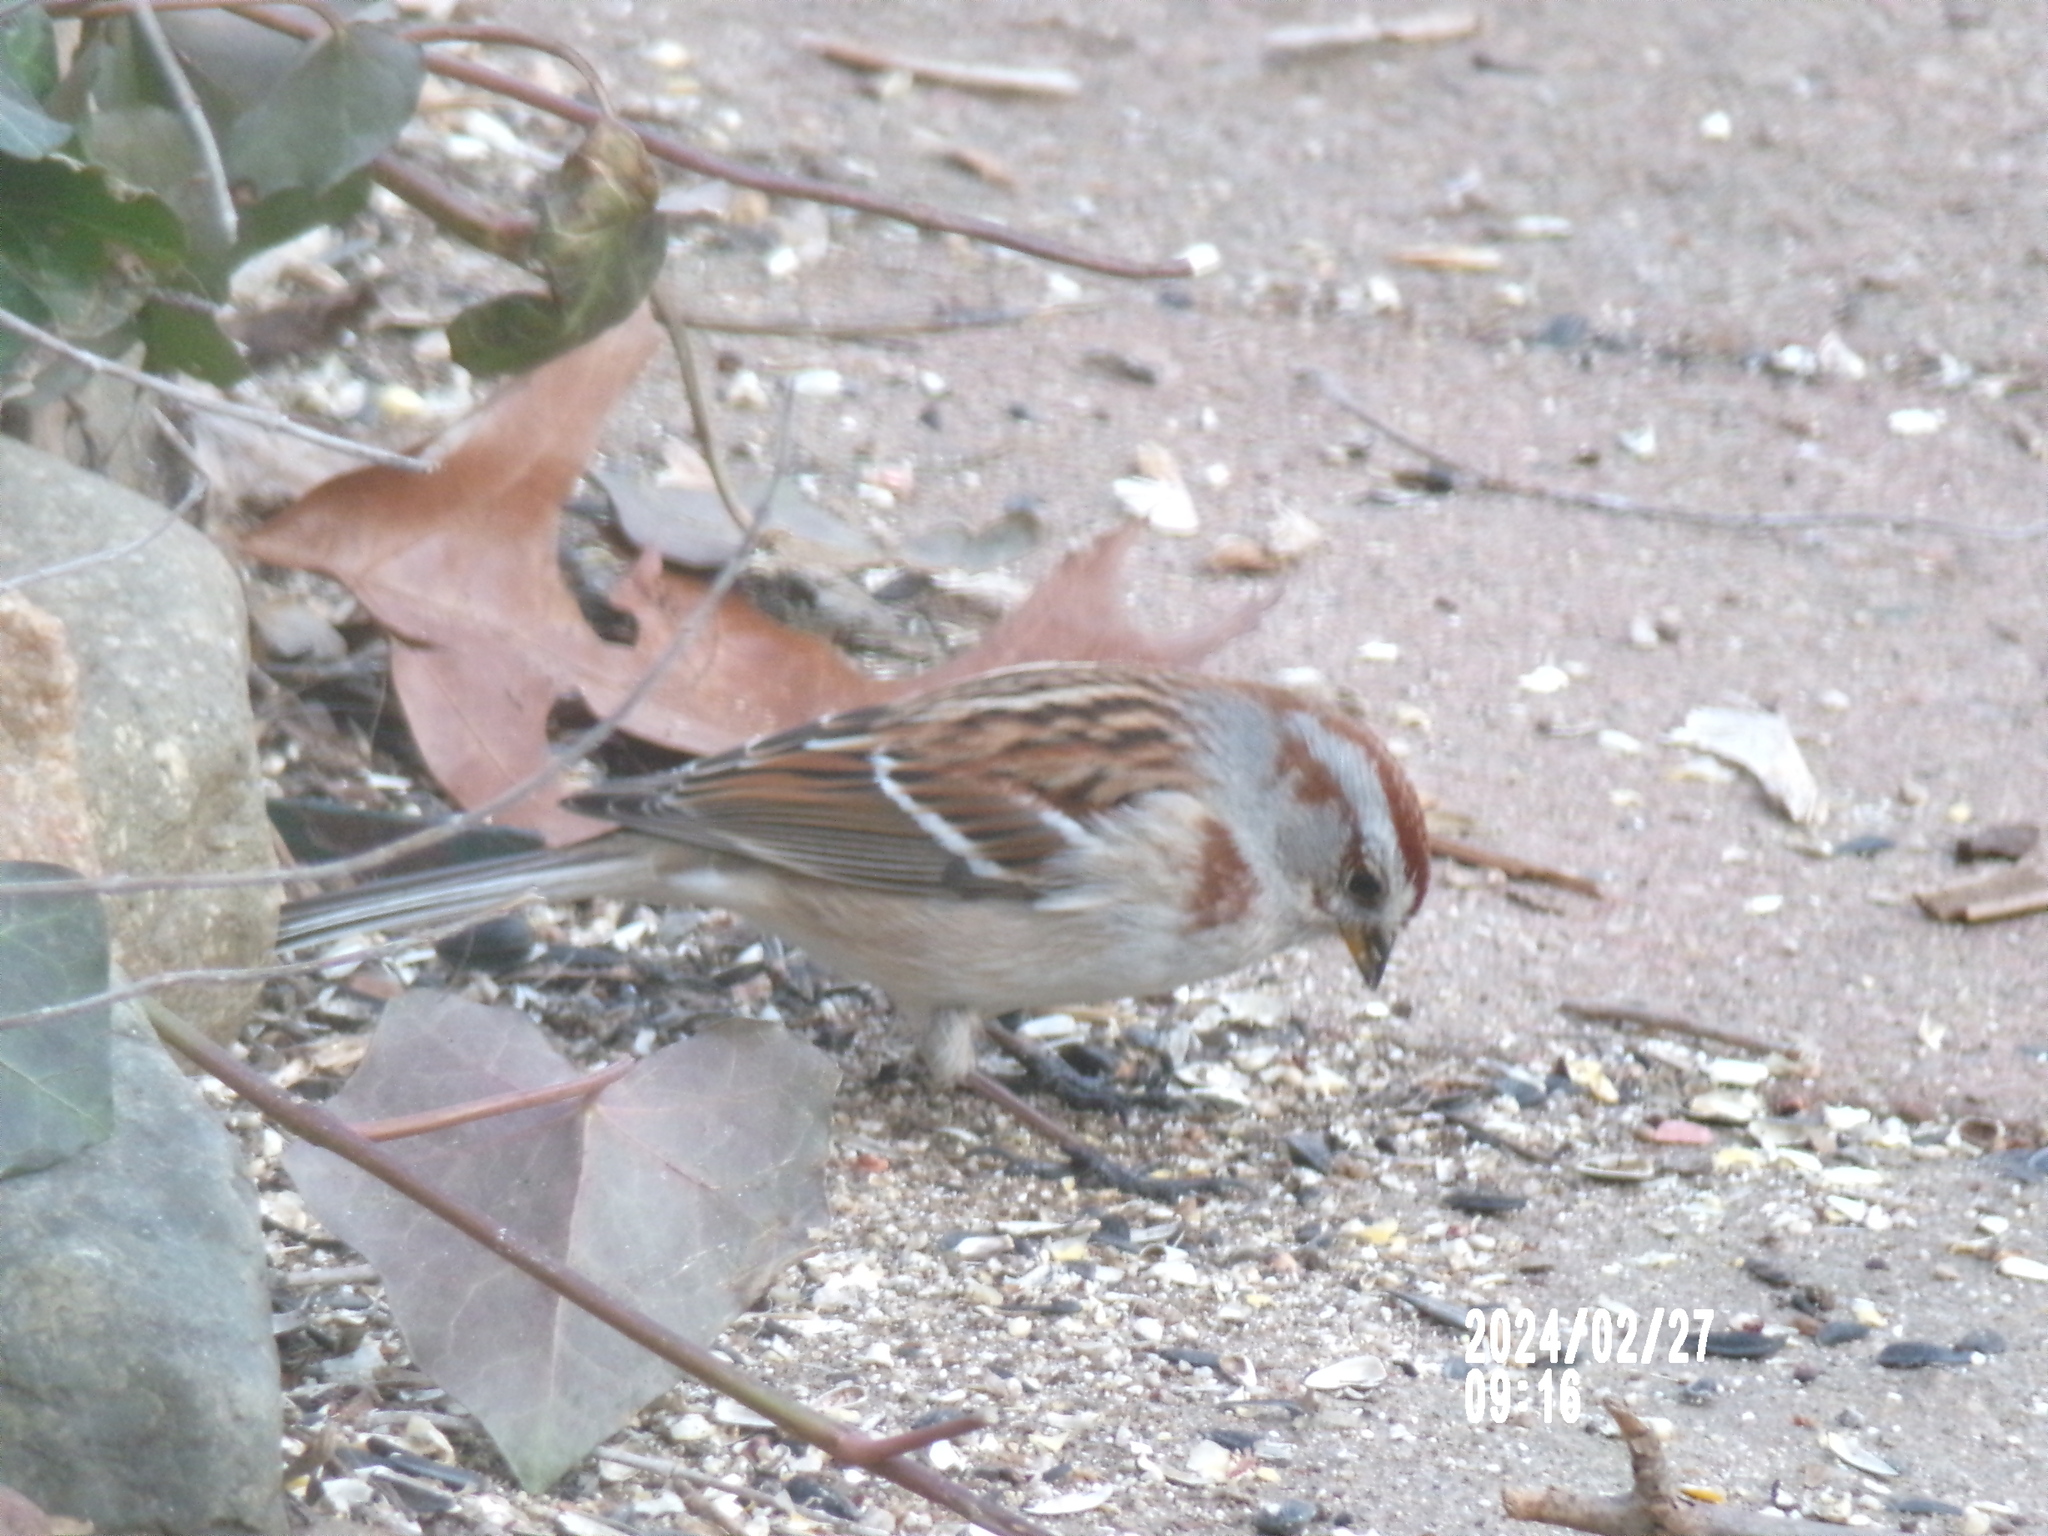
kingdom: Animalia
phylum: Chordata
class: Aves
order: Passeriformes
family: Passerellidae
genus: Spizelloides
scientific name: Spizelloides arborea
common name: American tree sparrow
